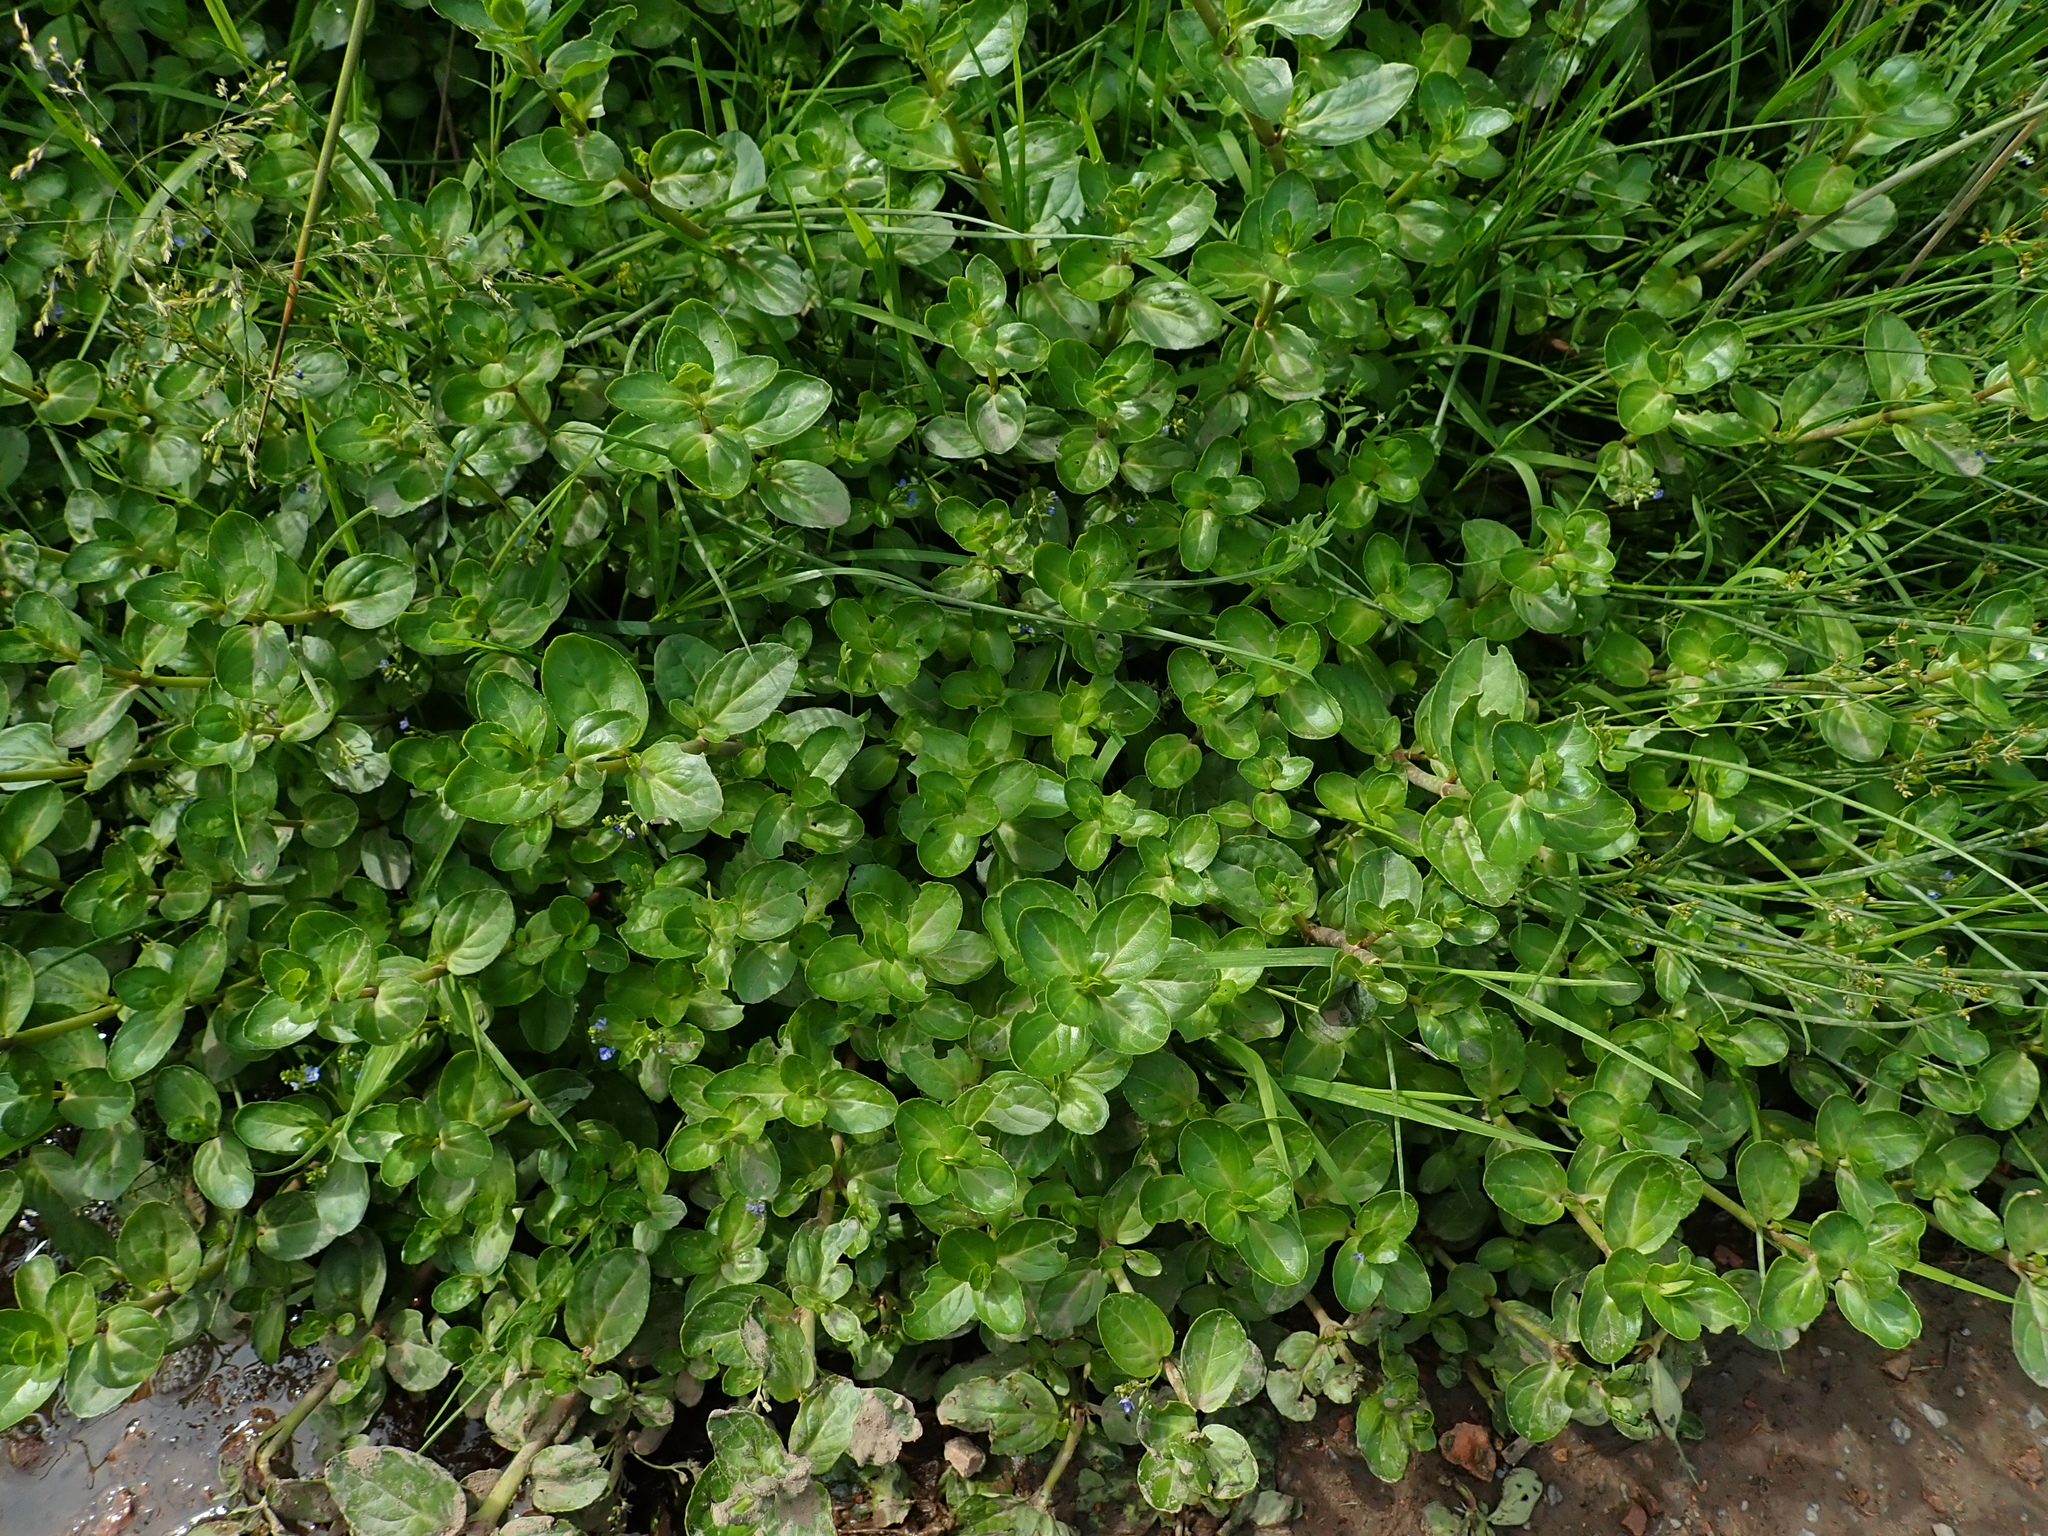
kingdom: Plantae
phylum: Tracheophyta
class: Magnoliopsida
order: Lamiales
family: Plantaginaceae
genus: Veronica
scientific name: Veronica beccabunga
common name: Brooklime
